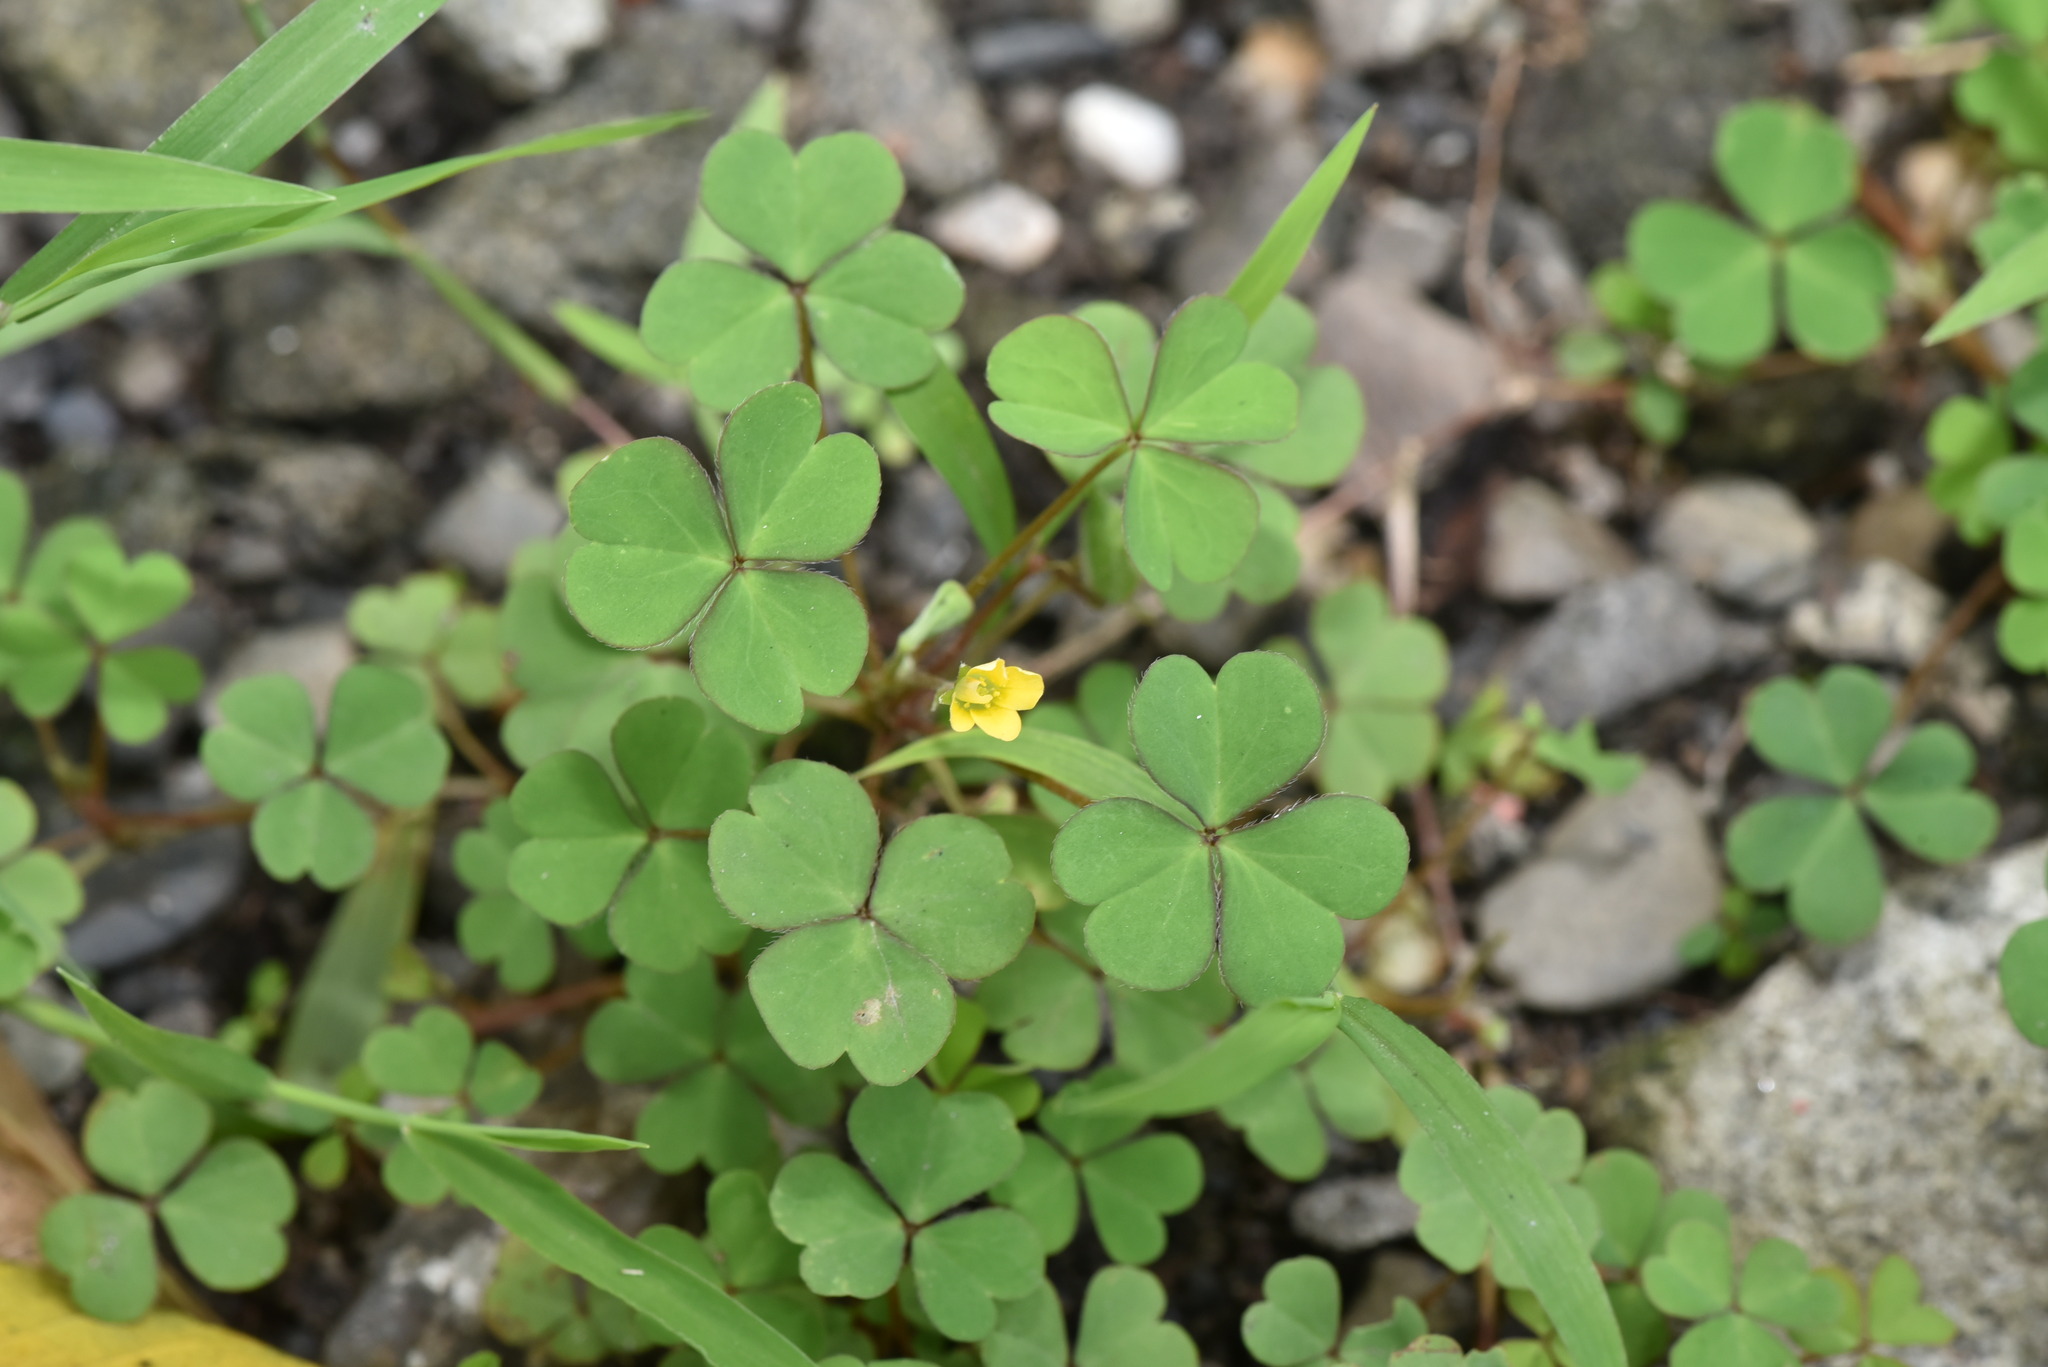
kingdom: Plantae
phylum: Tracheophyta
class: Magnoliopsida
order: Oxalidales
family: Oxalidaceae
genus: Oxalis
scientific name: Oxalis corniculata
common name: Procumbent yellow-sorrel
